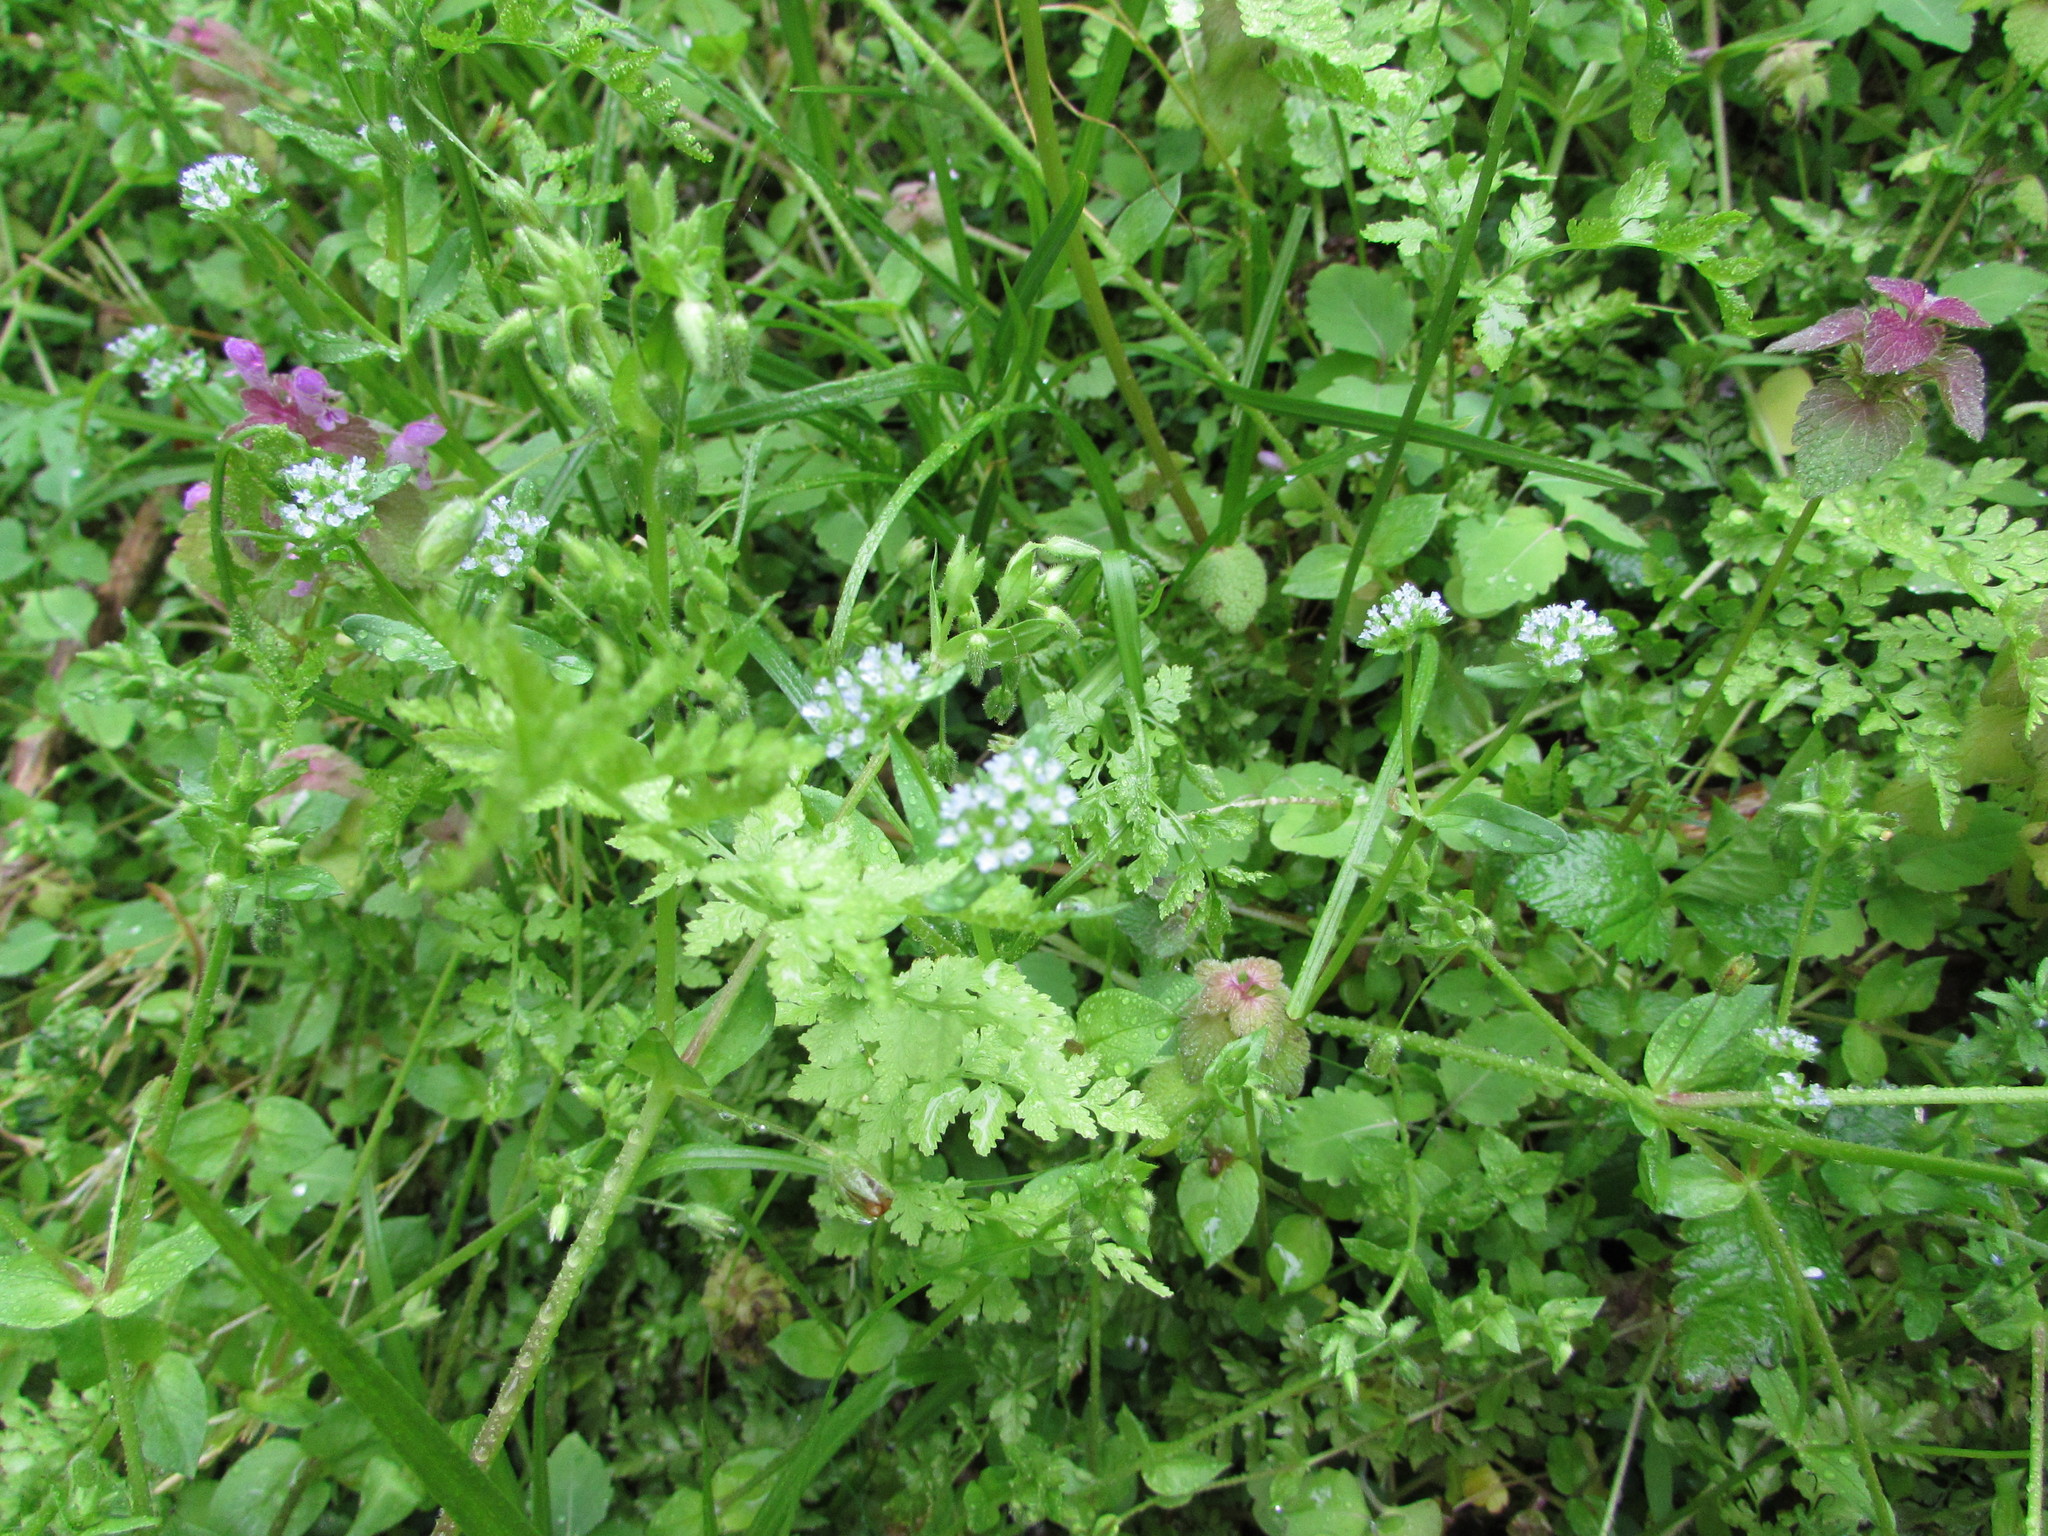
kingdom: Plantae
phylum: Tracheophyta
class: Magnoliopsida
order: Dipsacales
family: Caprifoliaceae
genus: Valerianella
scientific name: Valerianella locusta
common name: Common cornsalad
